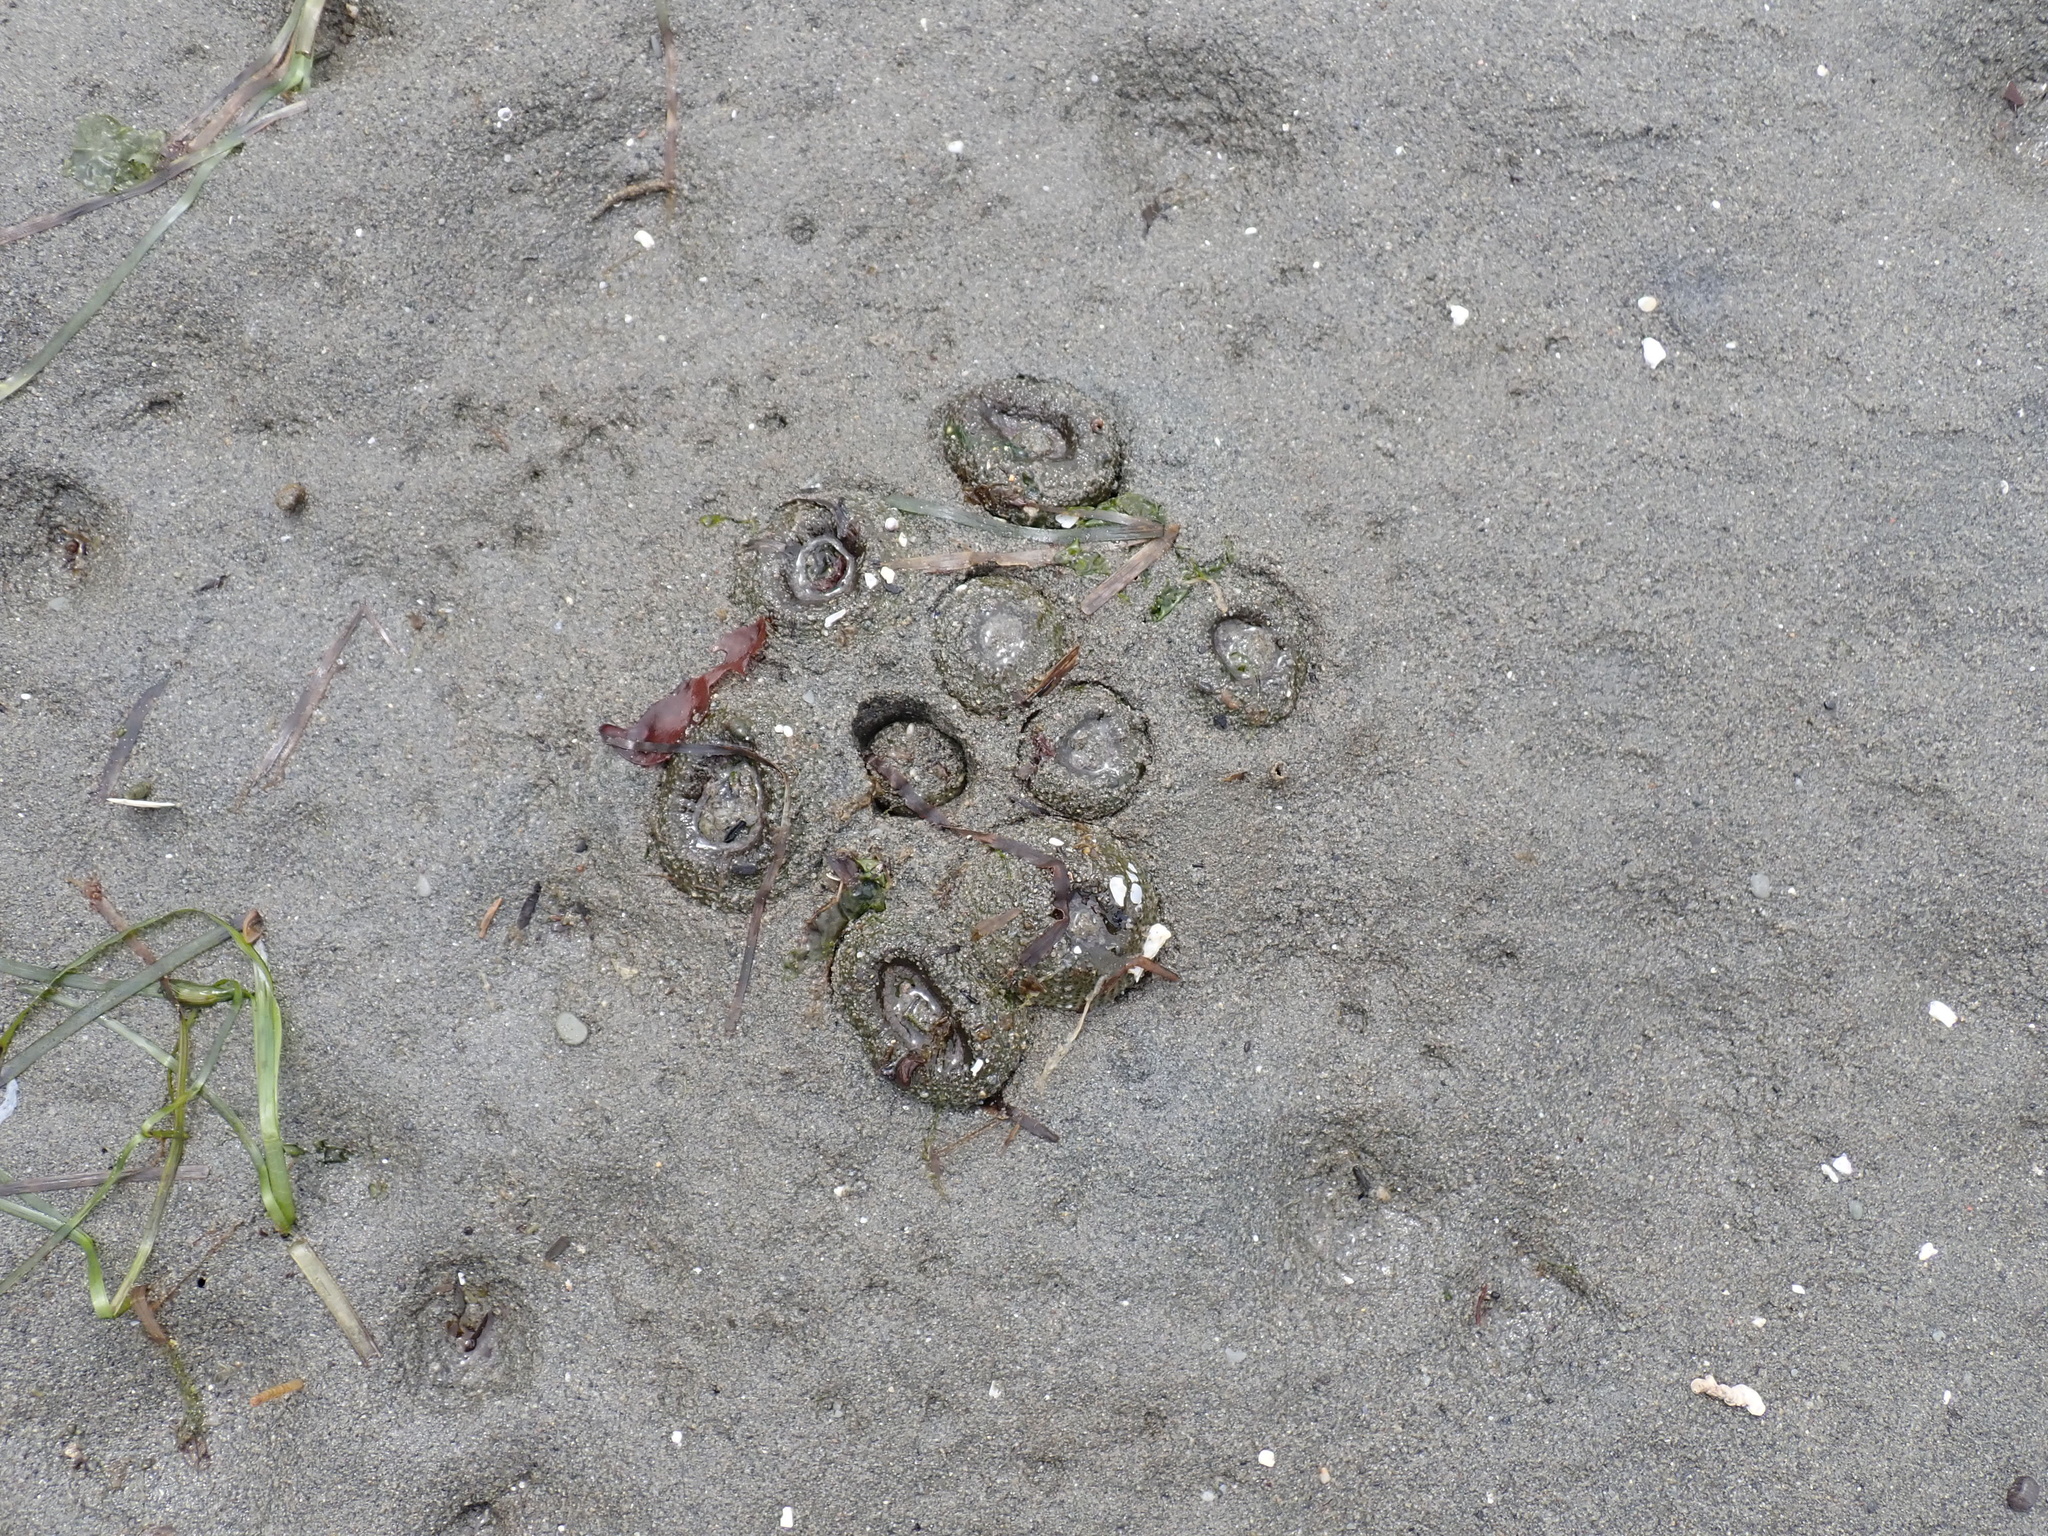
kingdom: Animalia
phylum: Cnidaria
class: Anthozoa
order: Actiniaria
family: Actiniidae
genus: Anthopleura
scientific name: Anthopleura elegantissima
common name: Clonal anemone
